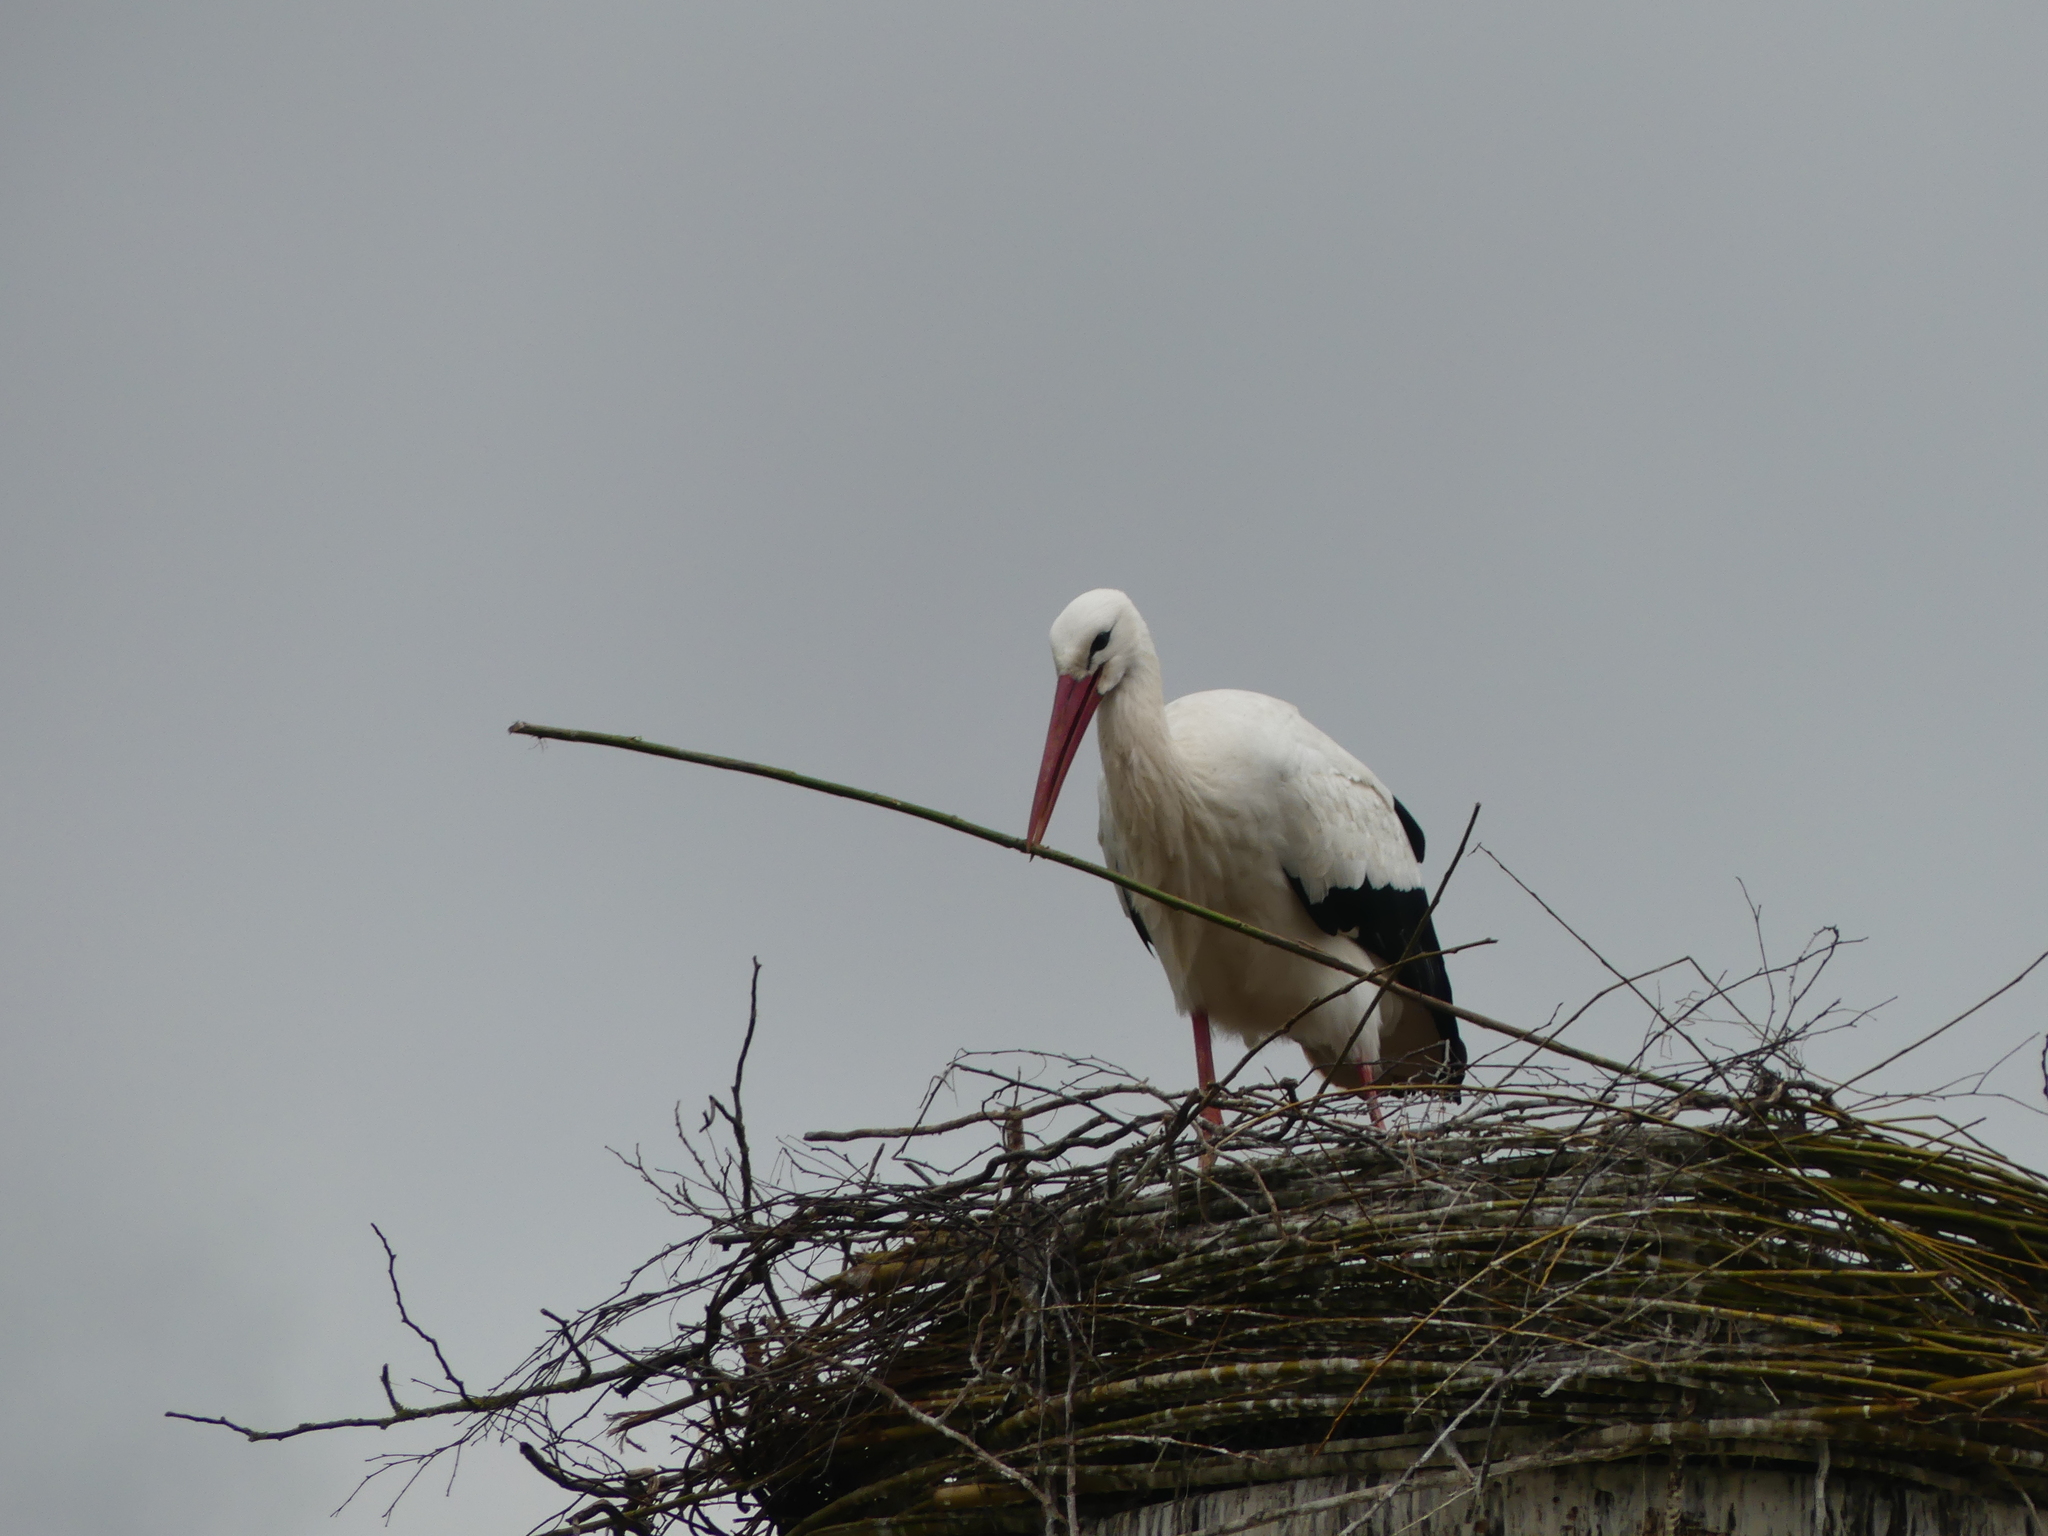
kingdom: Animalia
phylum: Chordata
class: Aves
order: Ciconiiformes
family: Ciconiidae
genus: Ciconia
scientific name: Ciconia ciconia
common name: White stork
